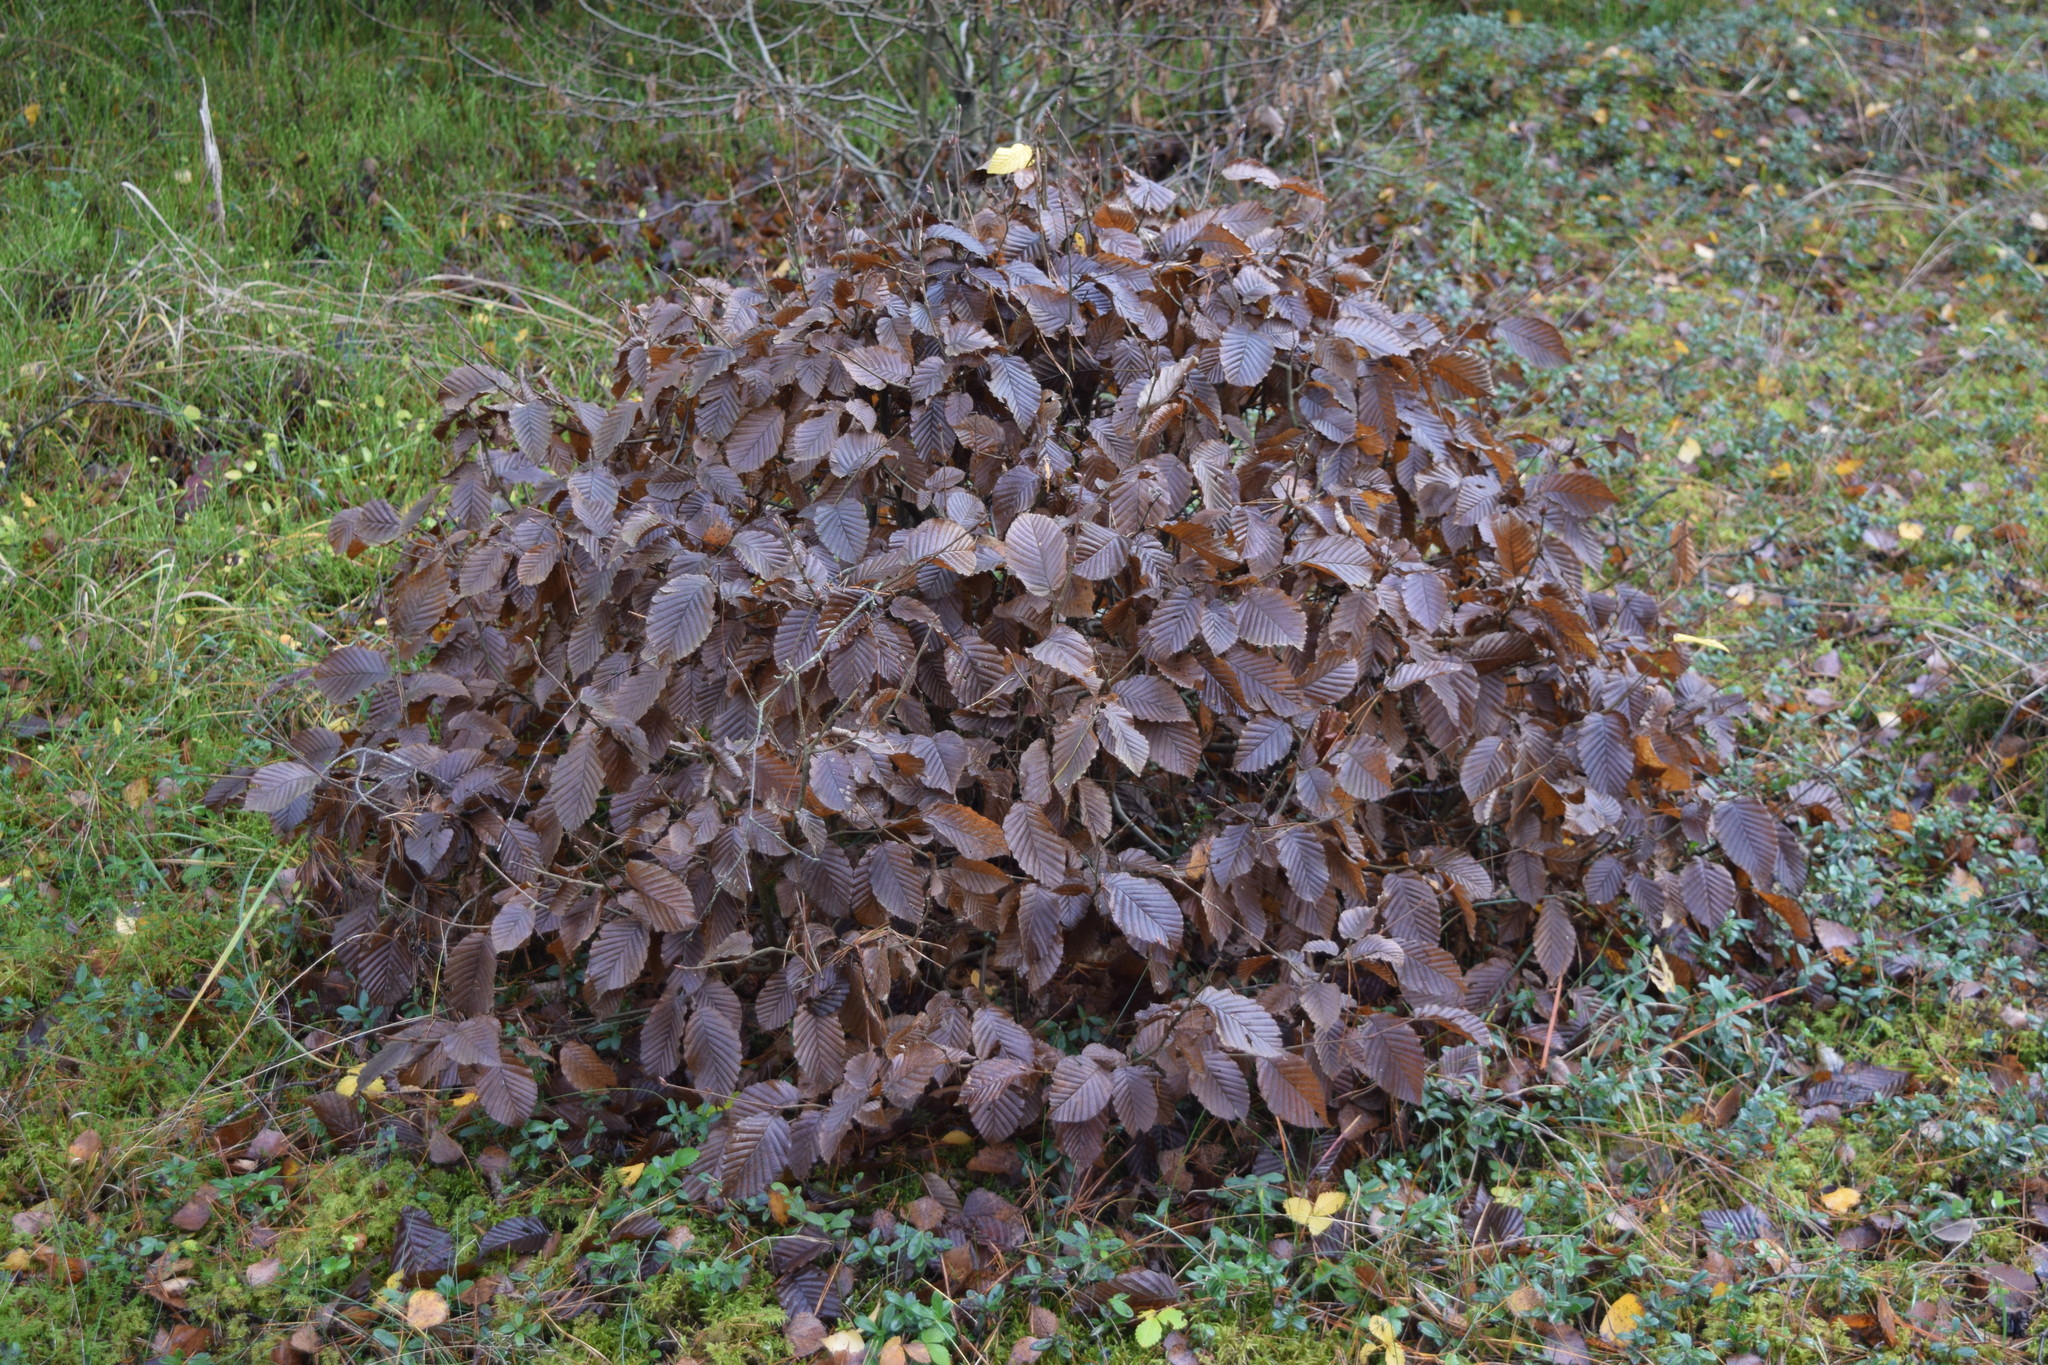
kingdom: Plantae
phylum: Tracheophyta
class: Magnoliopsida
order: Fagales
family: Betulaceae
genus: Carpinus
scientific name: Carpinus betulus
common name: Hornbeam
